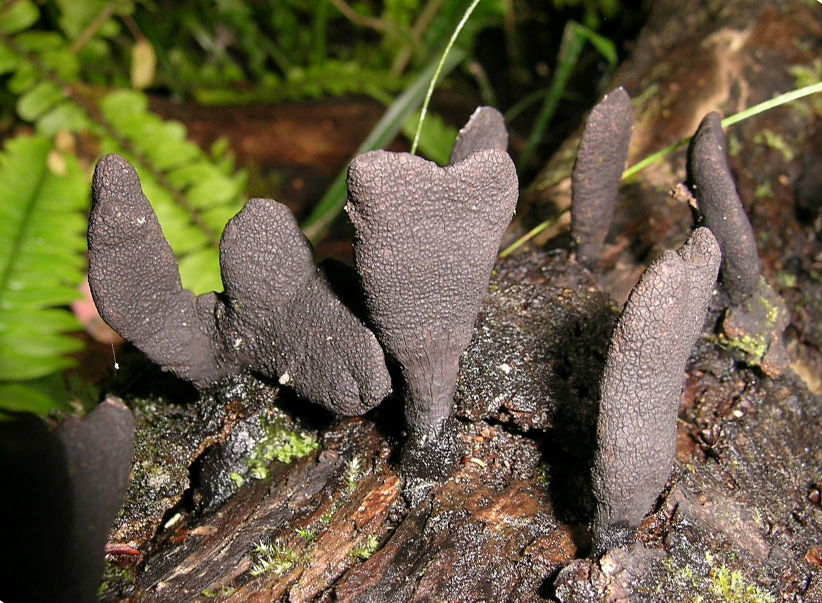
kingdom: Fungi
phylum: Ascomycota
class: Sordariomycetes
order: Xylariales
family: Xylariaceae
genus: Xylaria
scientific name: Xylaria castorea
